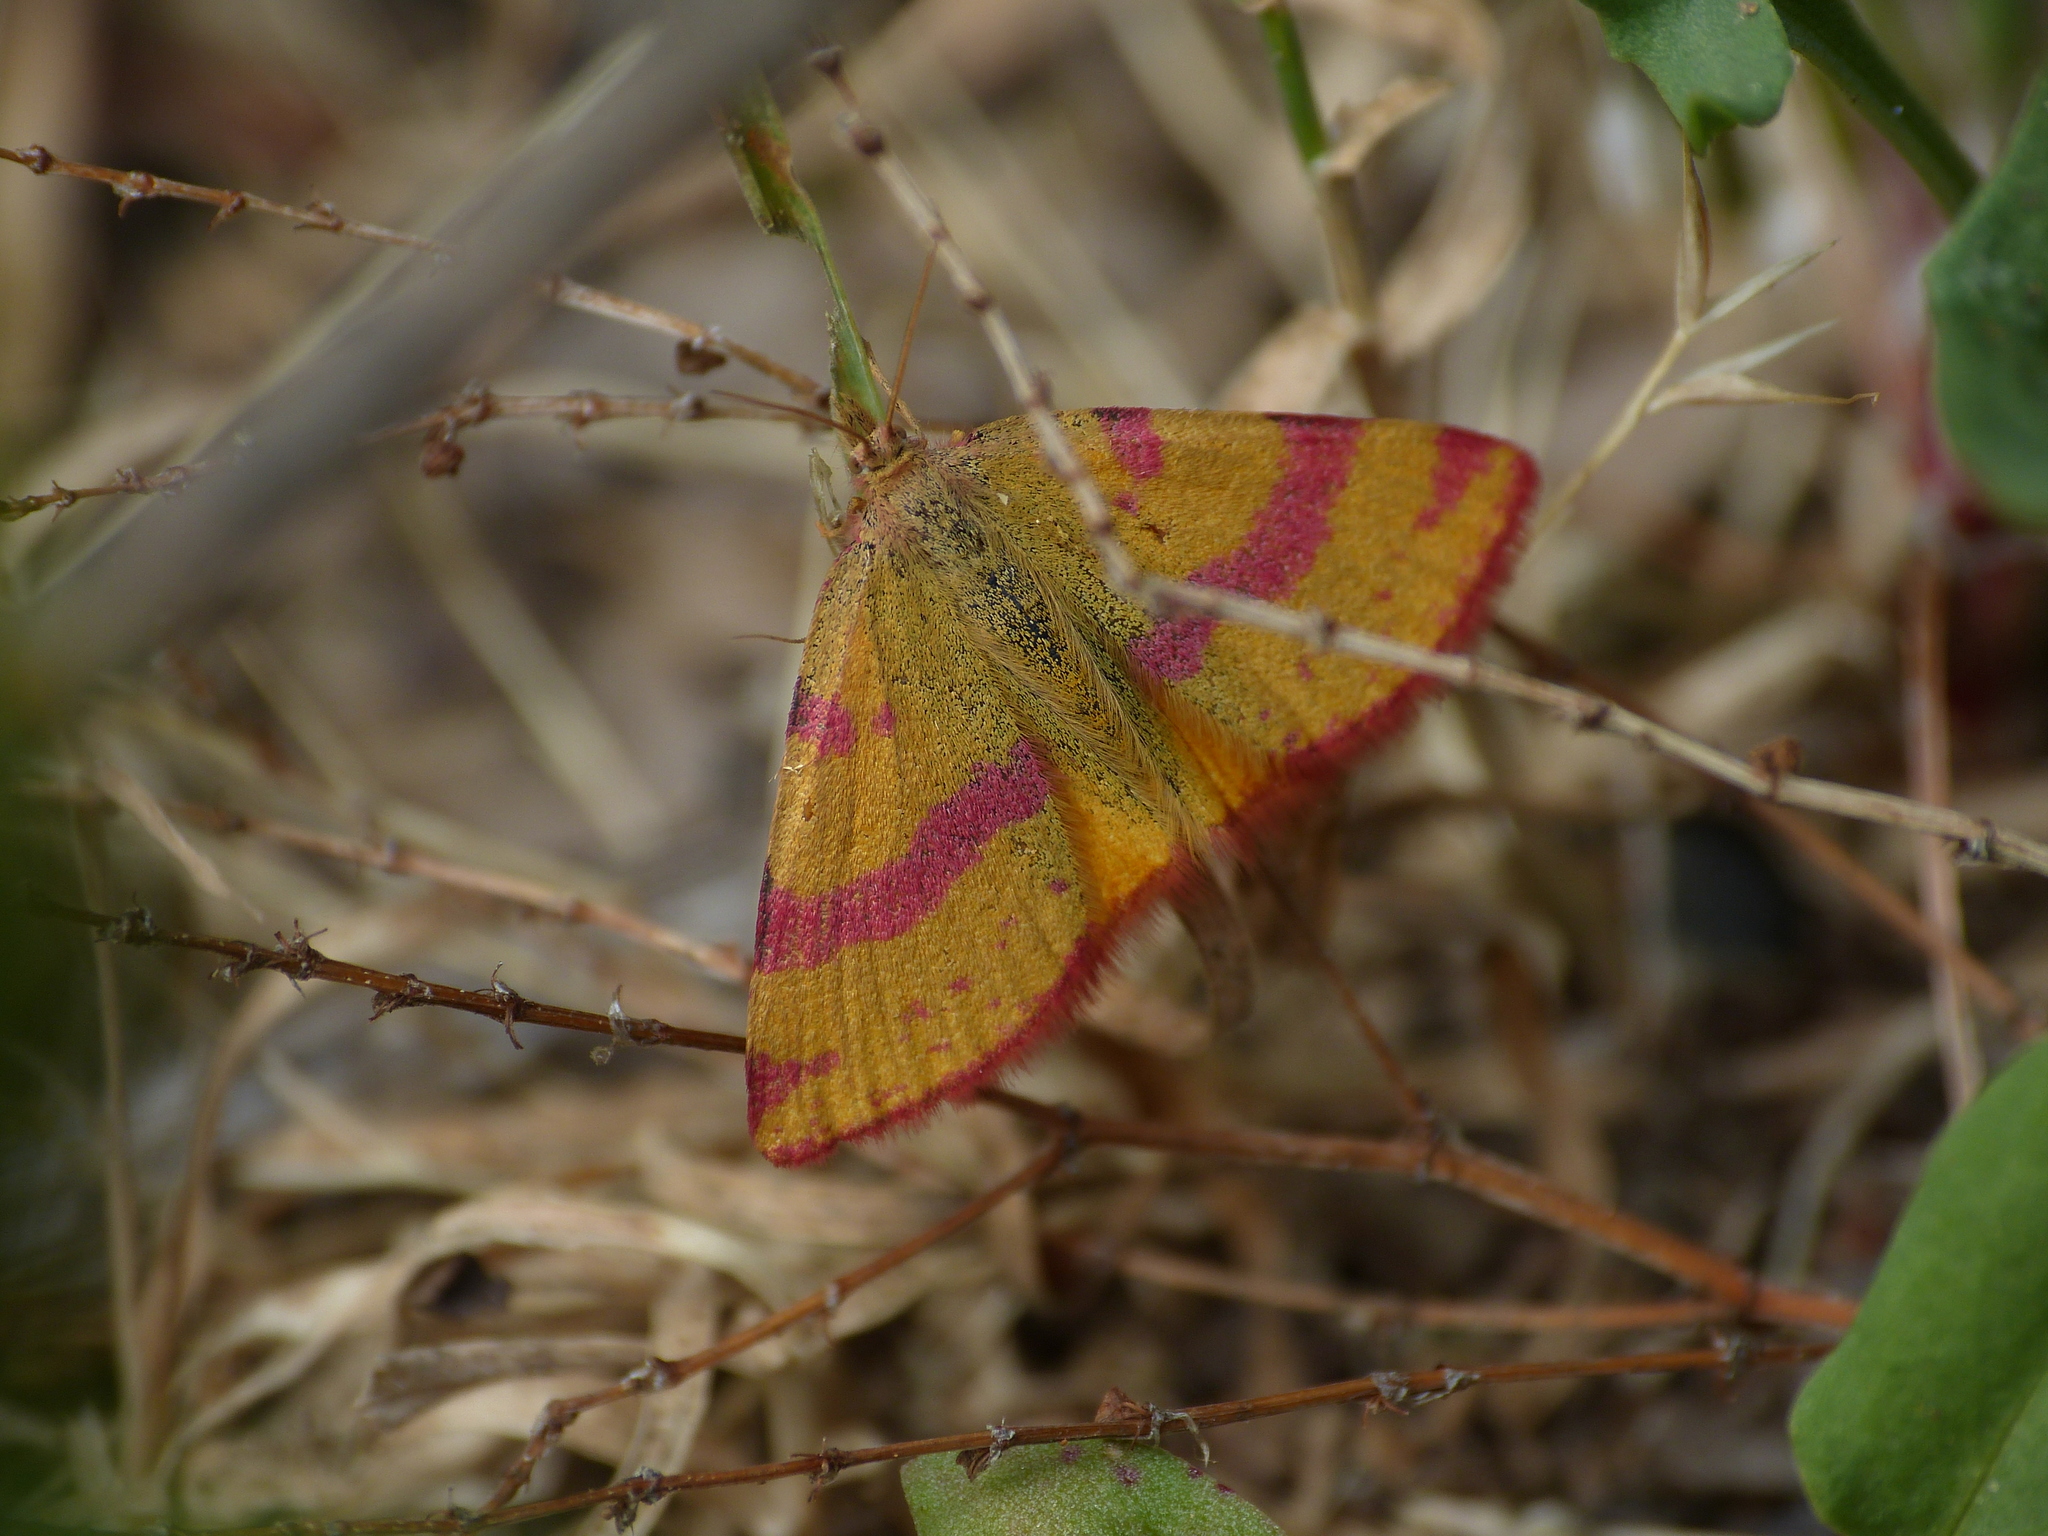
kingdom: Animalia
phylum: Arthropoda
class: Insecta
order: Lepidoptera
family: Geometridae
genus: Lythria
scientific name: Lythria cruentaria
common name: Purple-barred yellow
